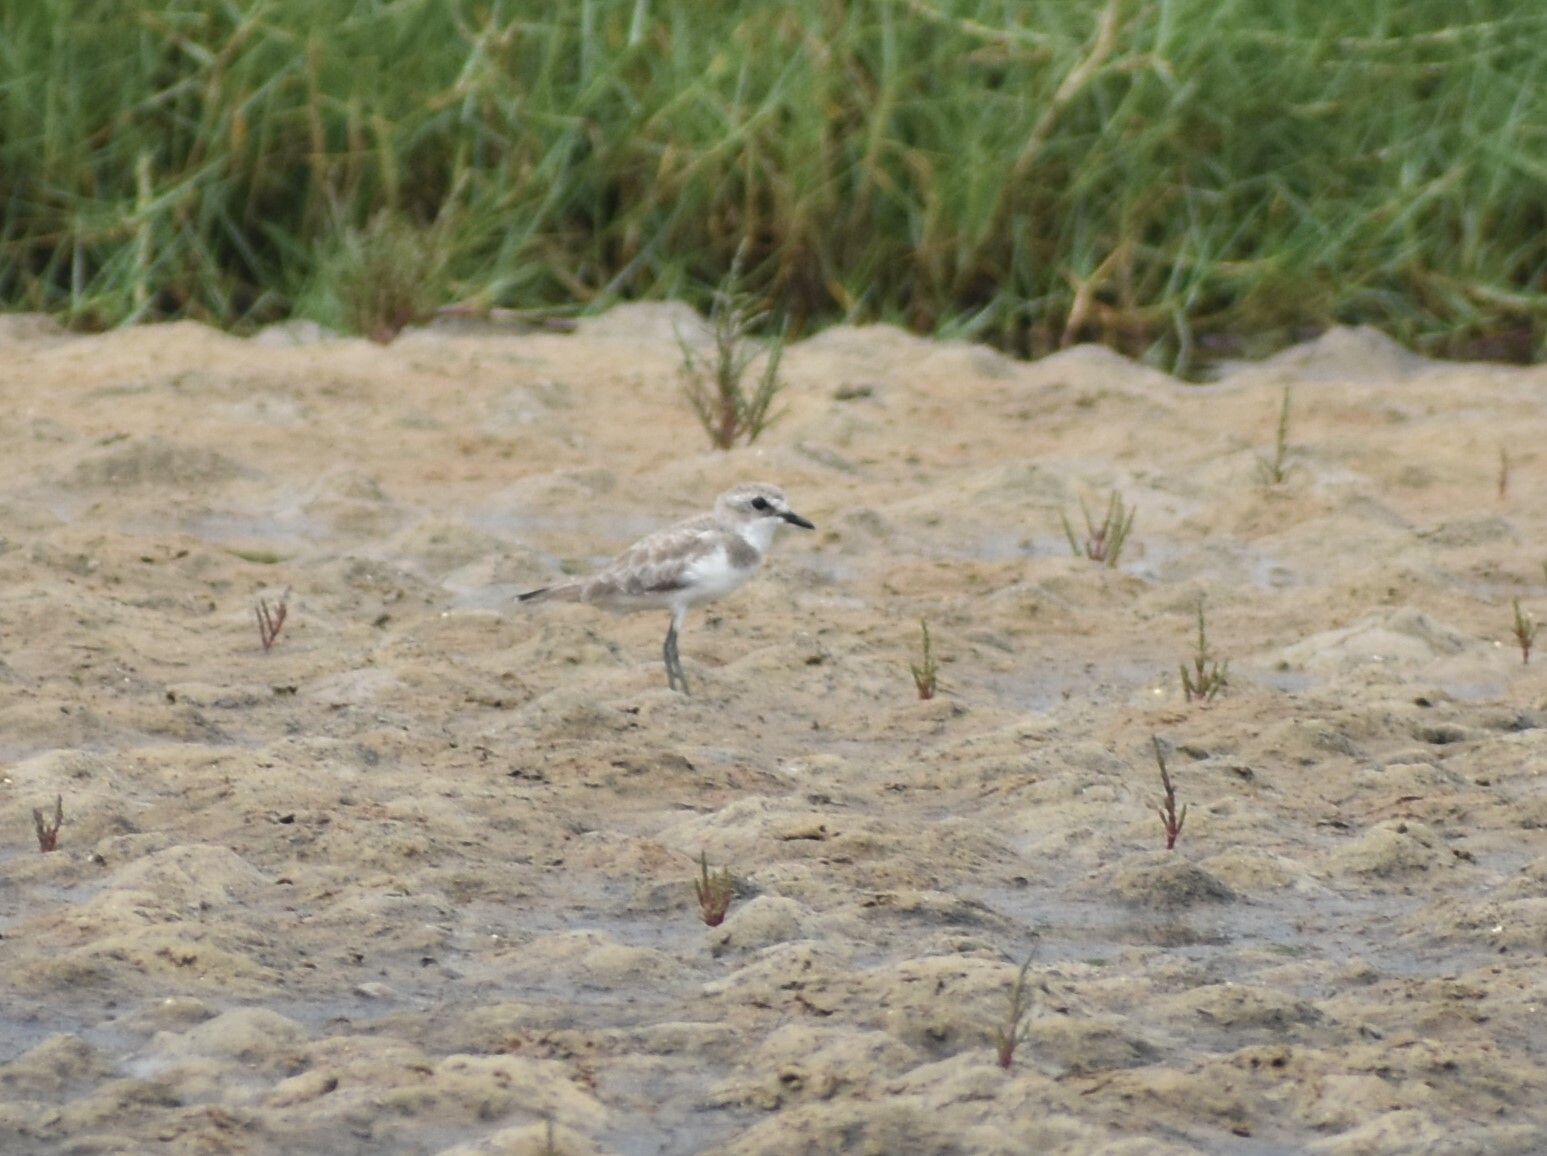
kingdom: Animalia
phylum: Chordata
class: Aves
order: Charadriiformes
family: Charadriidae
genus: Anarhynchus
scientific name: Anarhynchus
